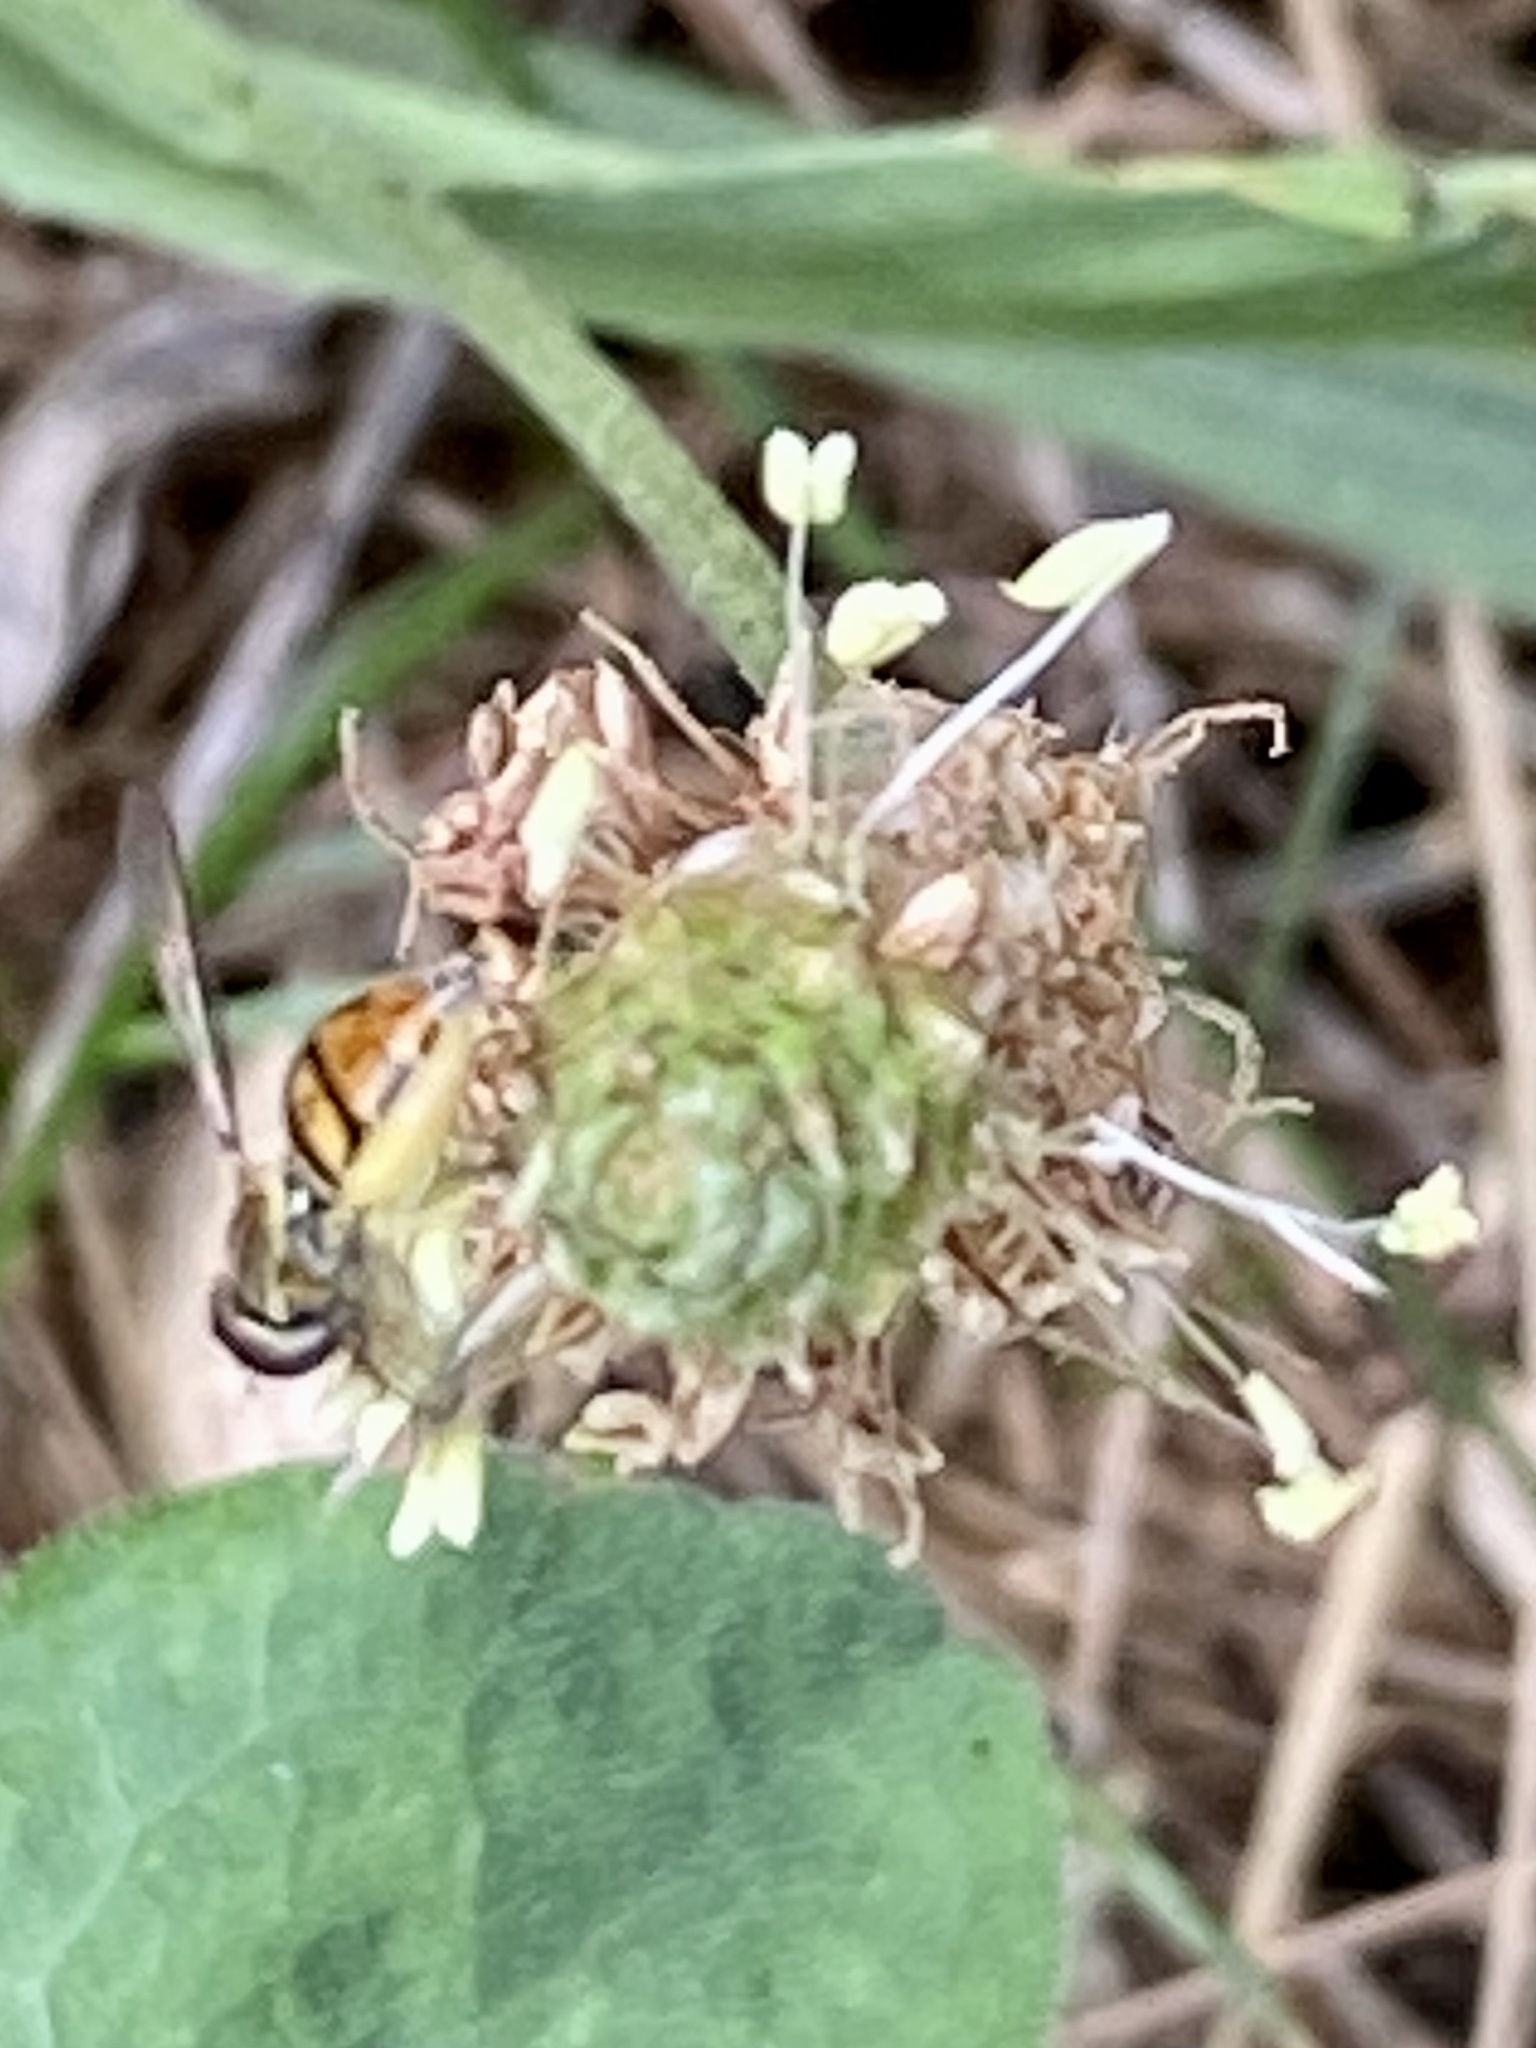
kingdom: Animalia
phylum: Arthropoda
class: Insecta
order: Diptera
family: Syrphidae
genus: Toxomerus
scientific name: Toxomerus marginatus
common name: Syrphid fly
